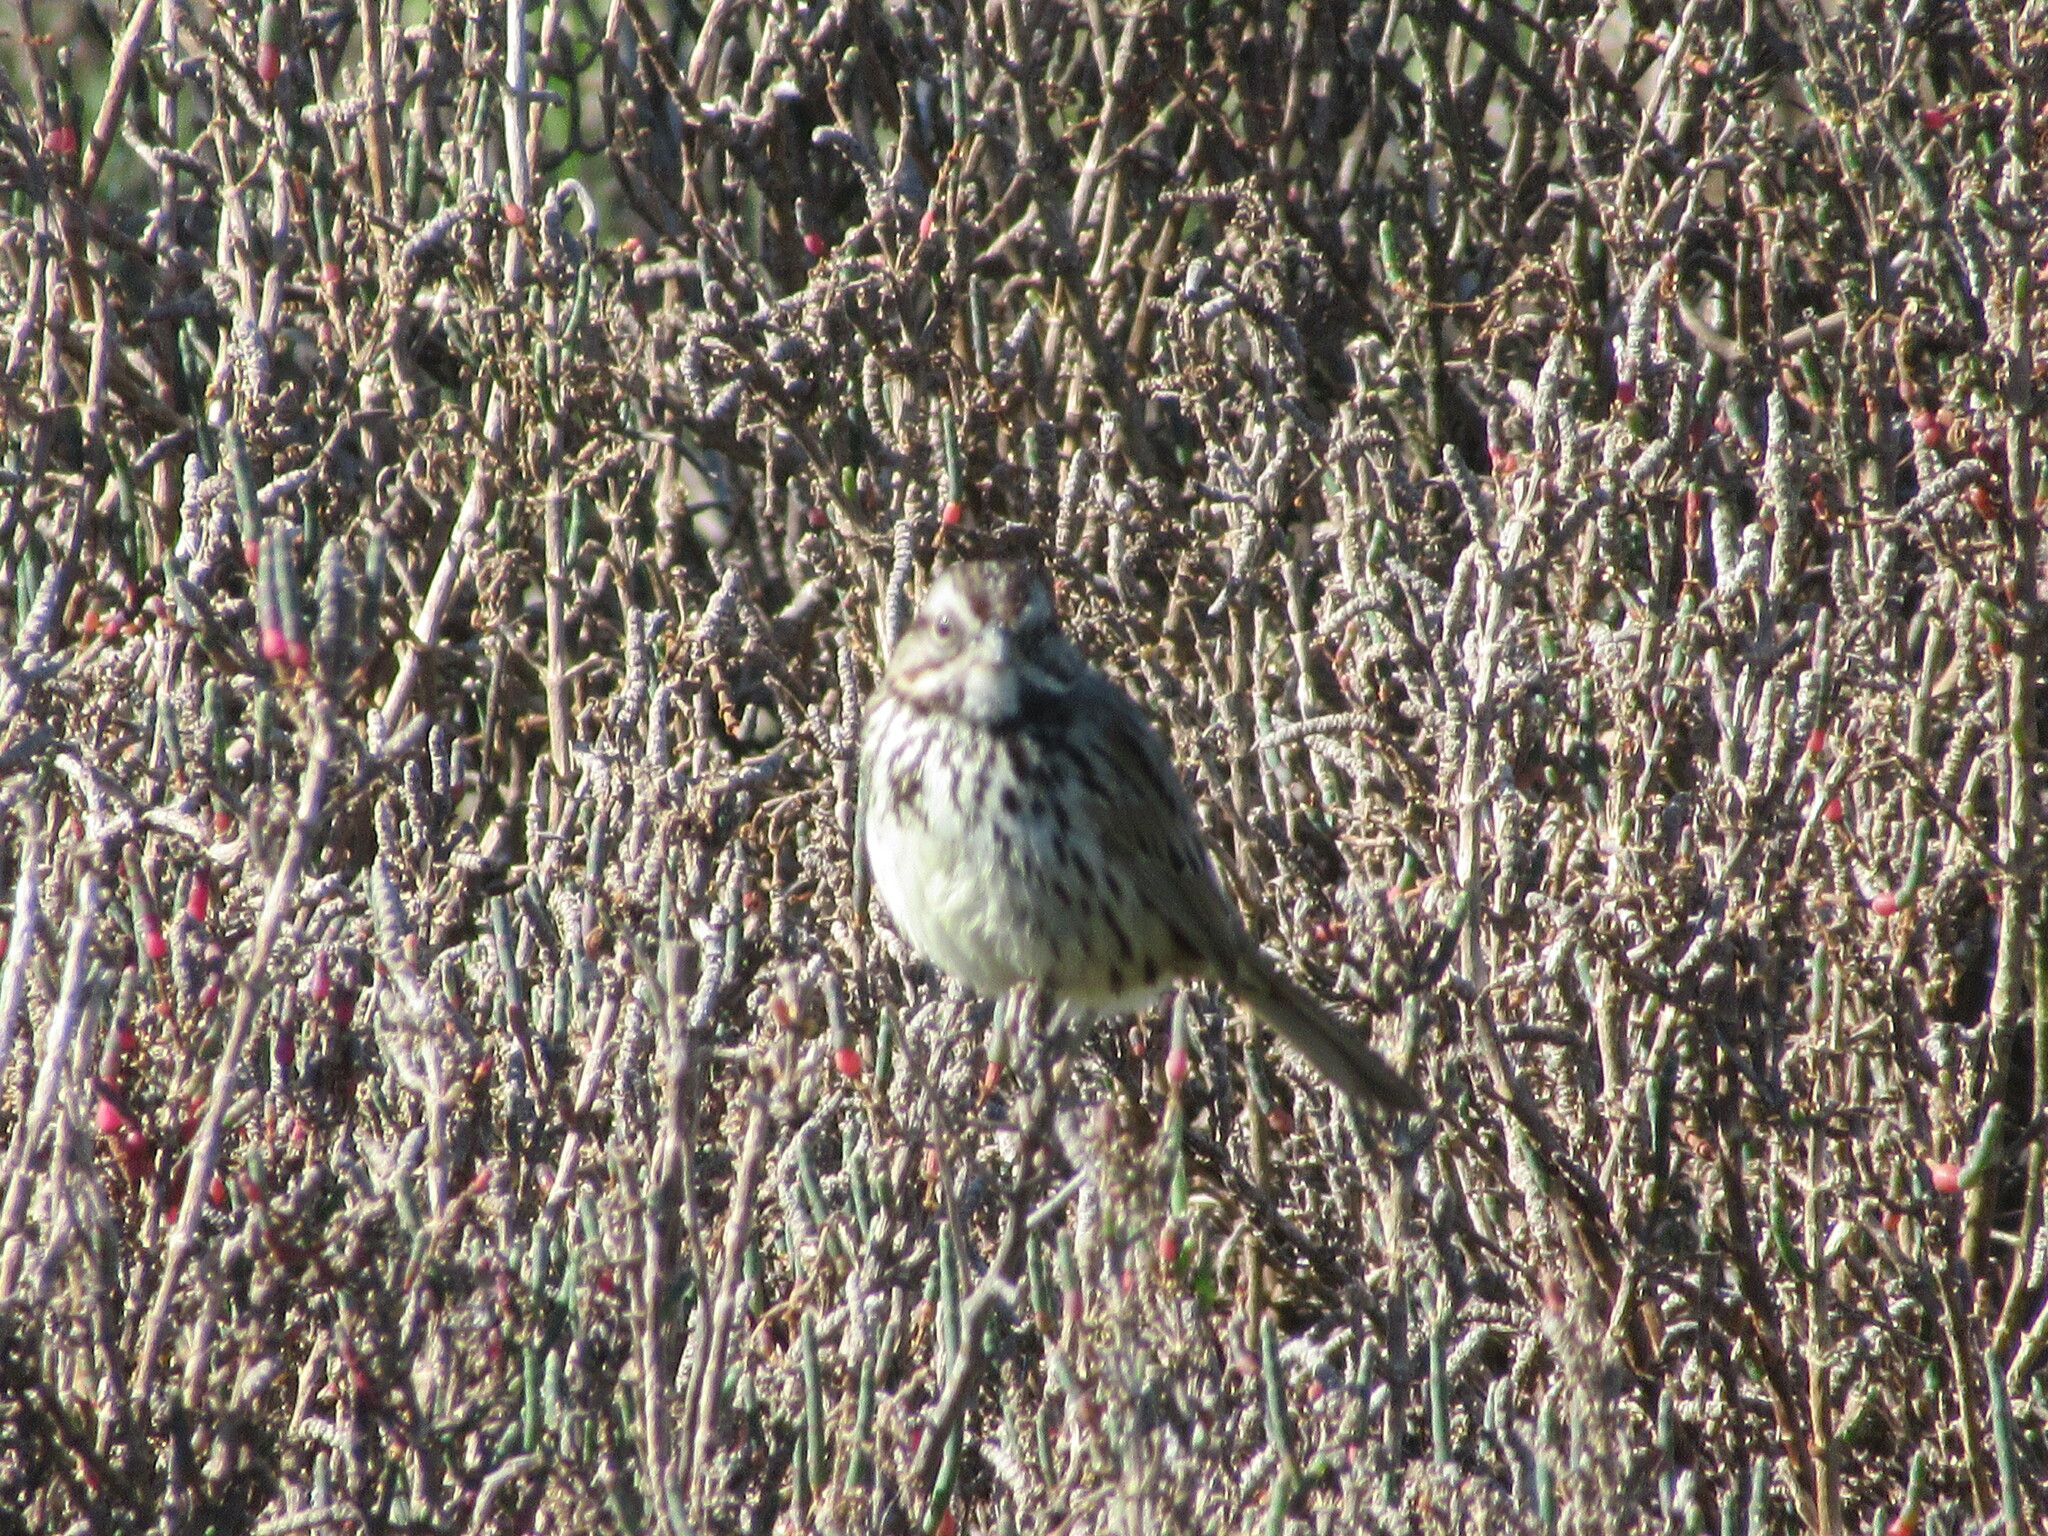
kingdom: Animalia
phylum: Chordata
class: Aves
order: Passeriformes
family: Passerellidae
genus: Melospiza
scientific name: Melospiza melodia
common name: Song sparrow
